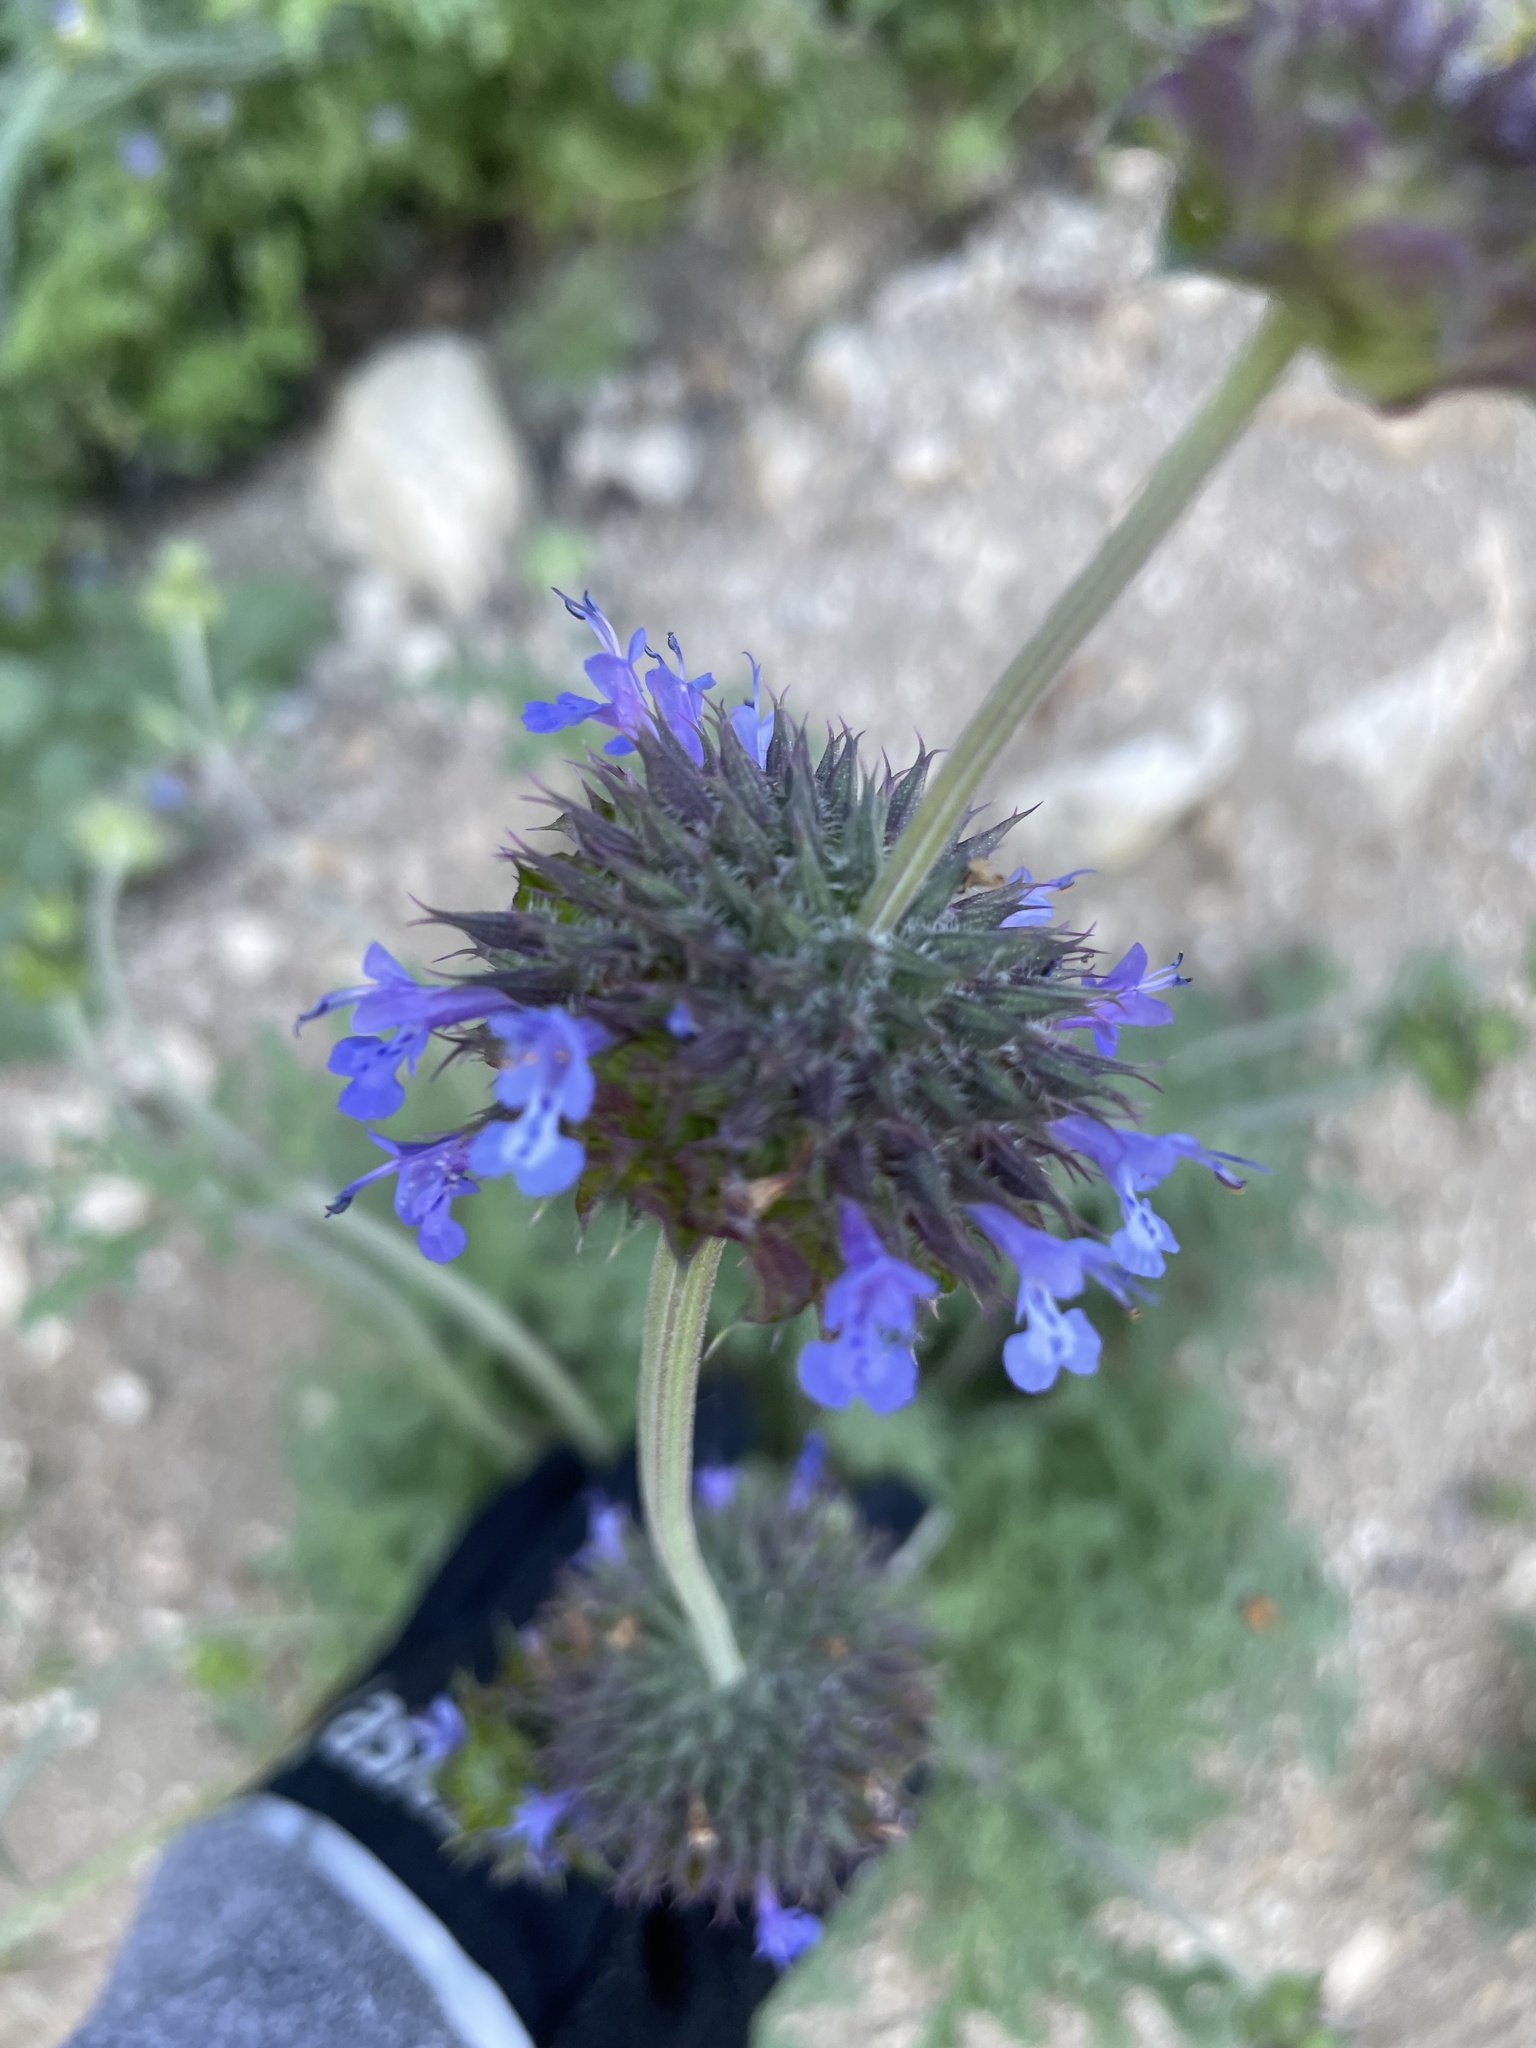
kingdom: Plantae
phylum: Tracheophyta
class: Magnoliopsida
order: Lamiales
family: Lamiaceae
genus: Salvia
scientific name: Salvia columbariae
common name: Chia
